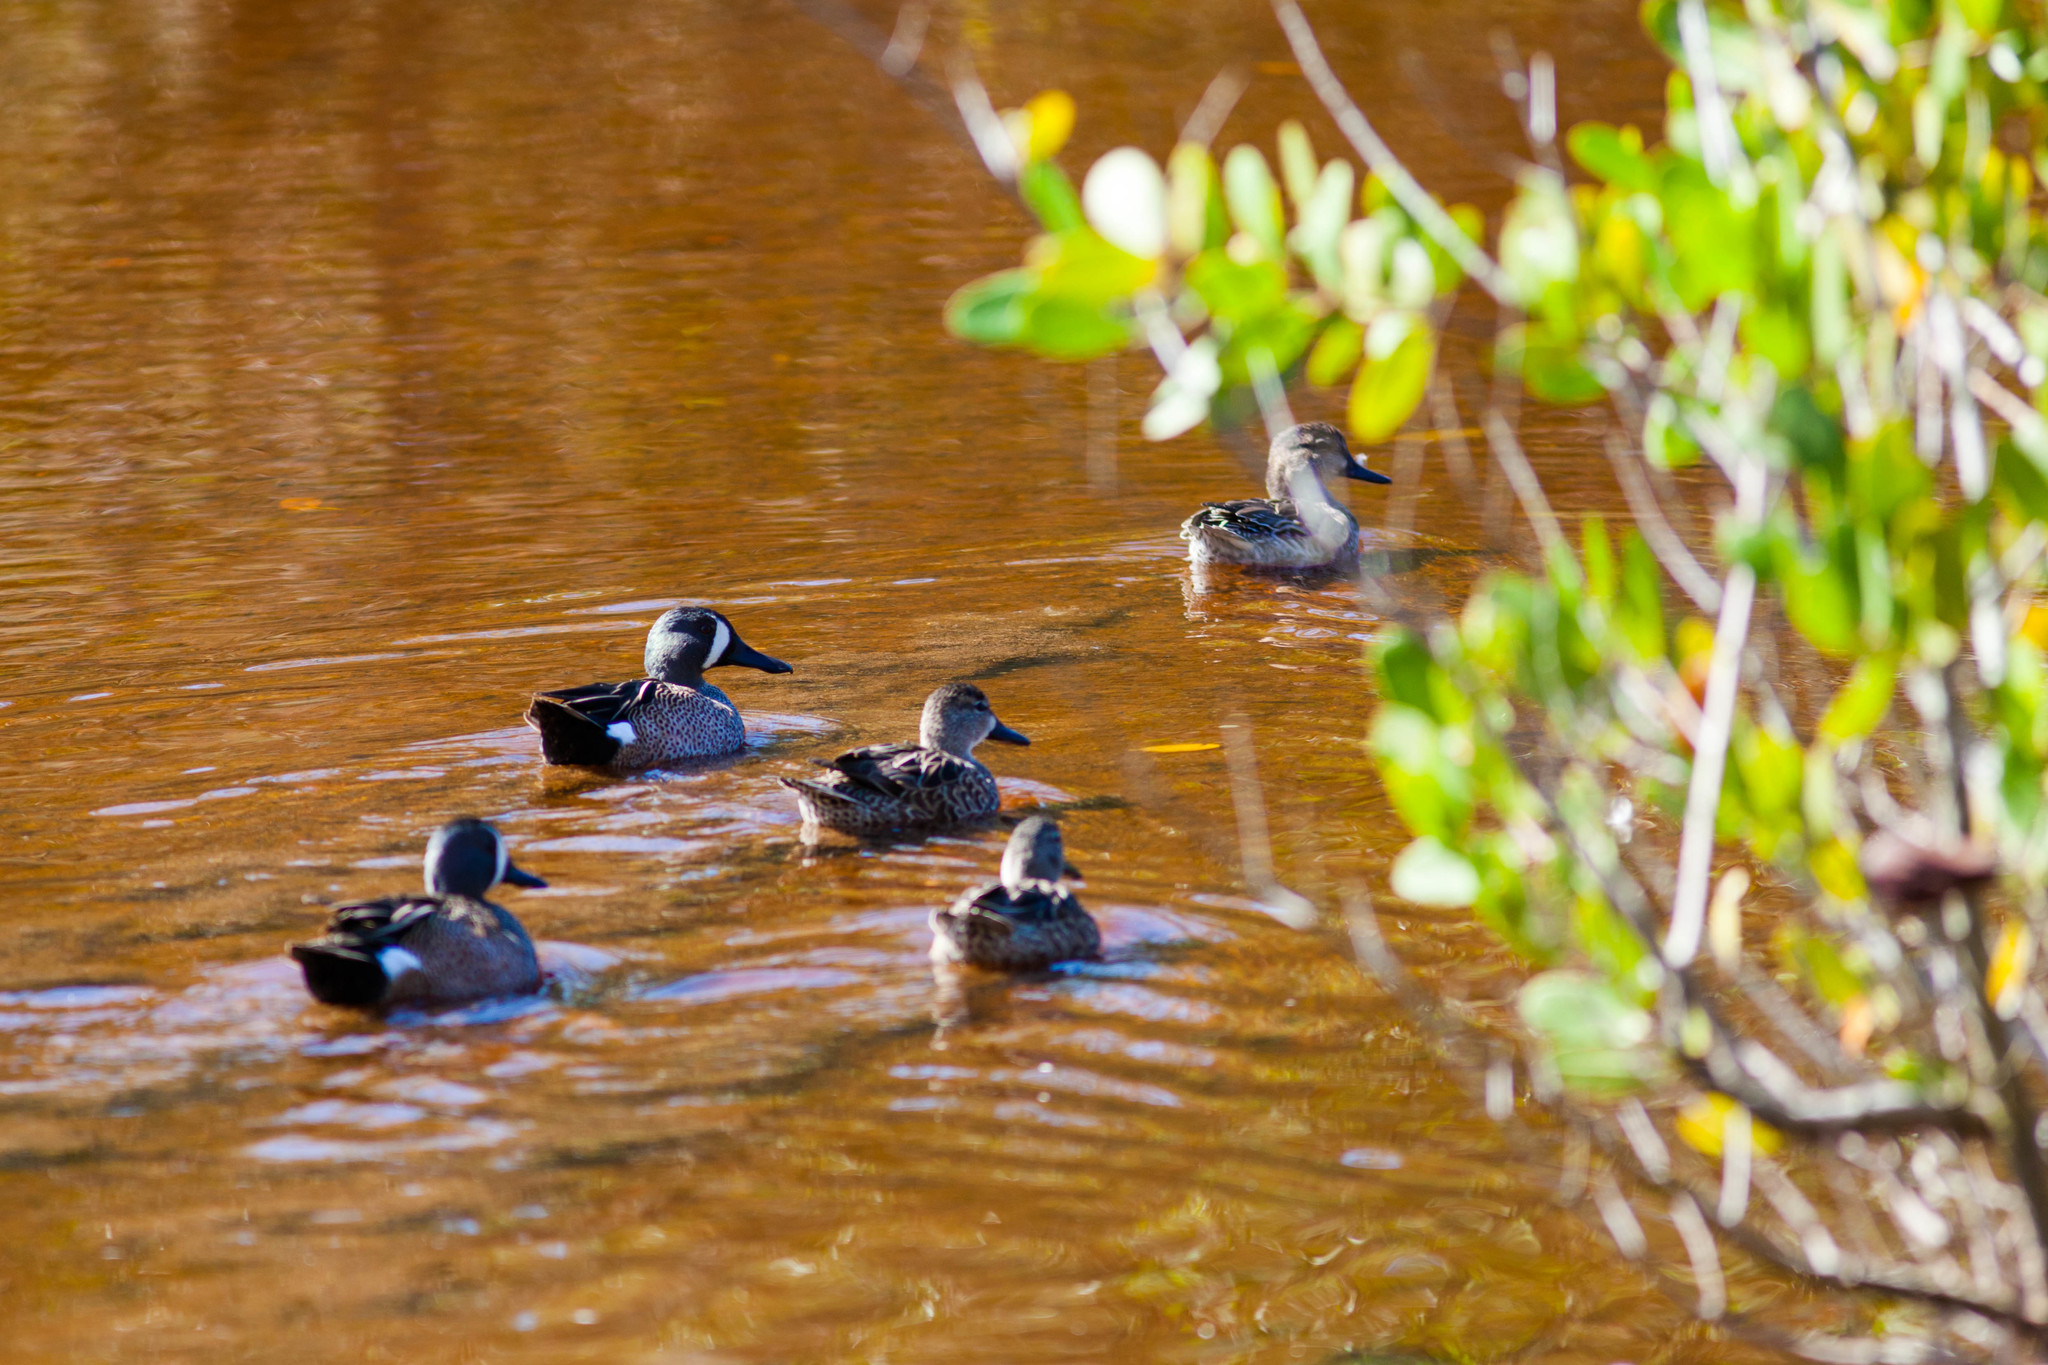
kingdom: Animalia
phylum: Chordata
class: Aves
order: Anseriformes
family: Anatidae
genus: Spatula
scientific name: Spatula discors
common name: Blue-winged teal
